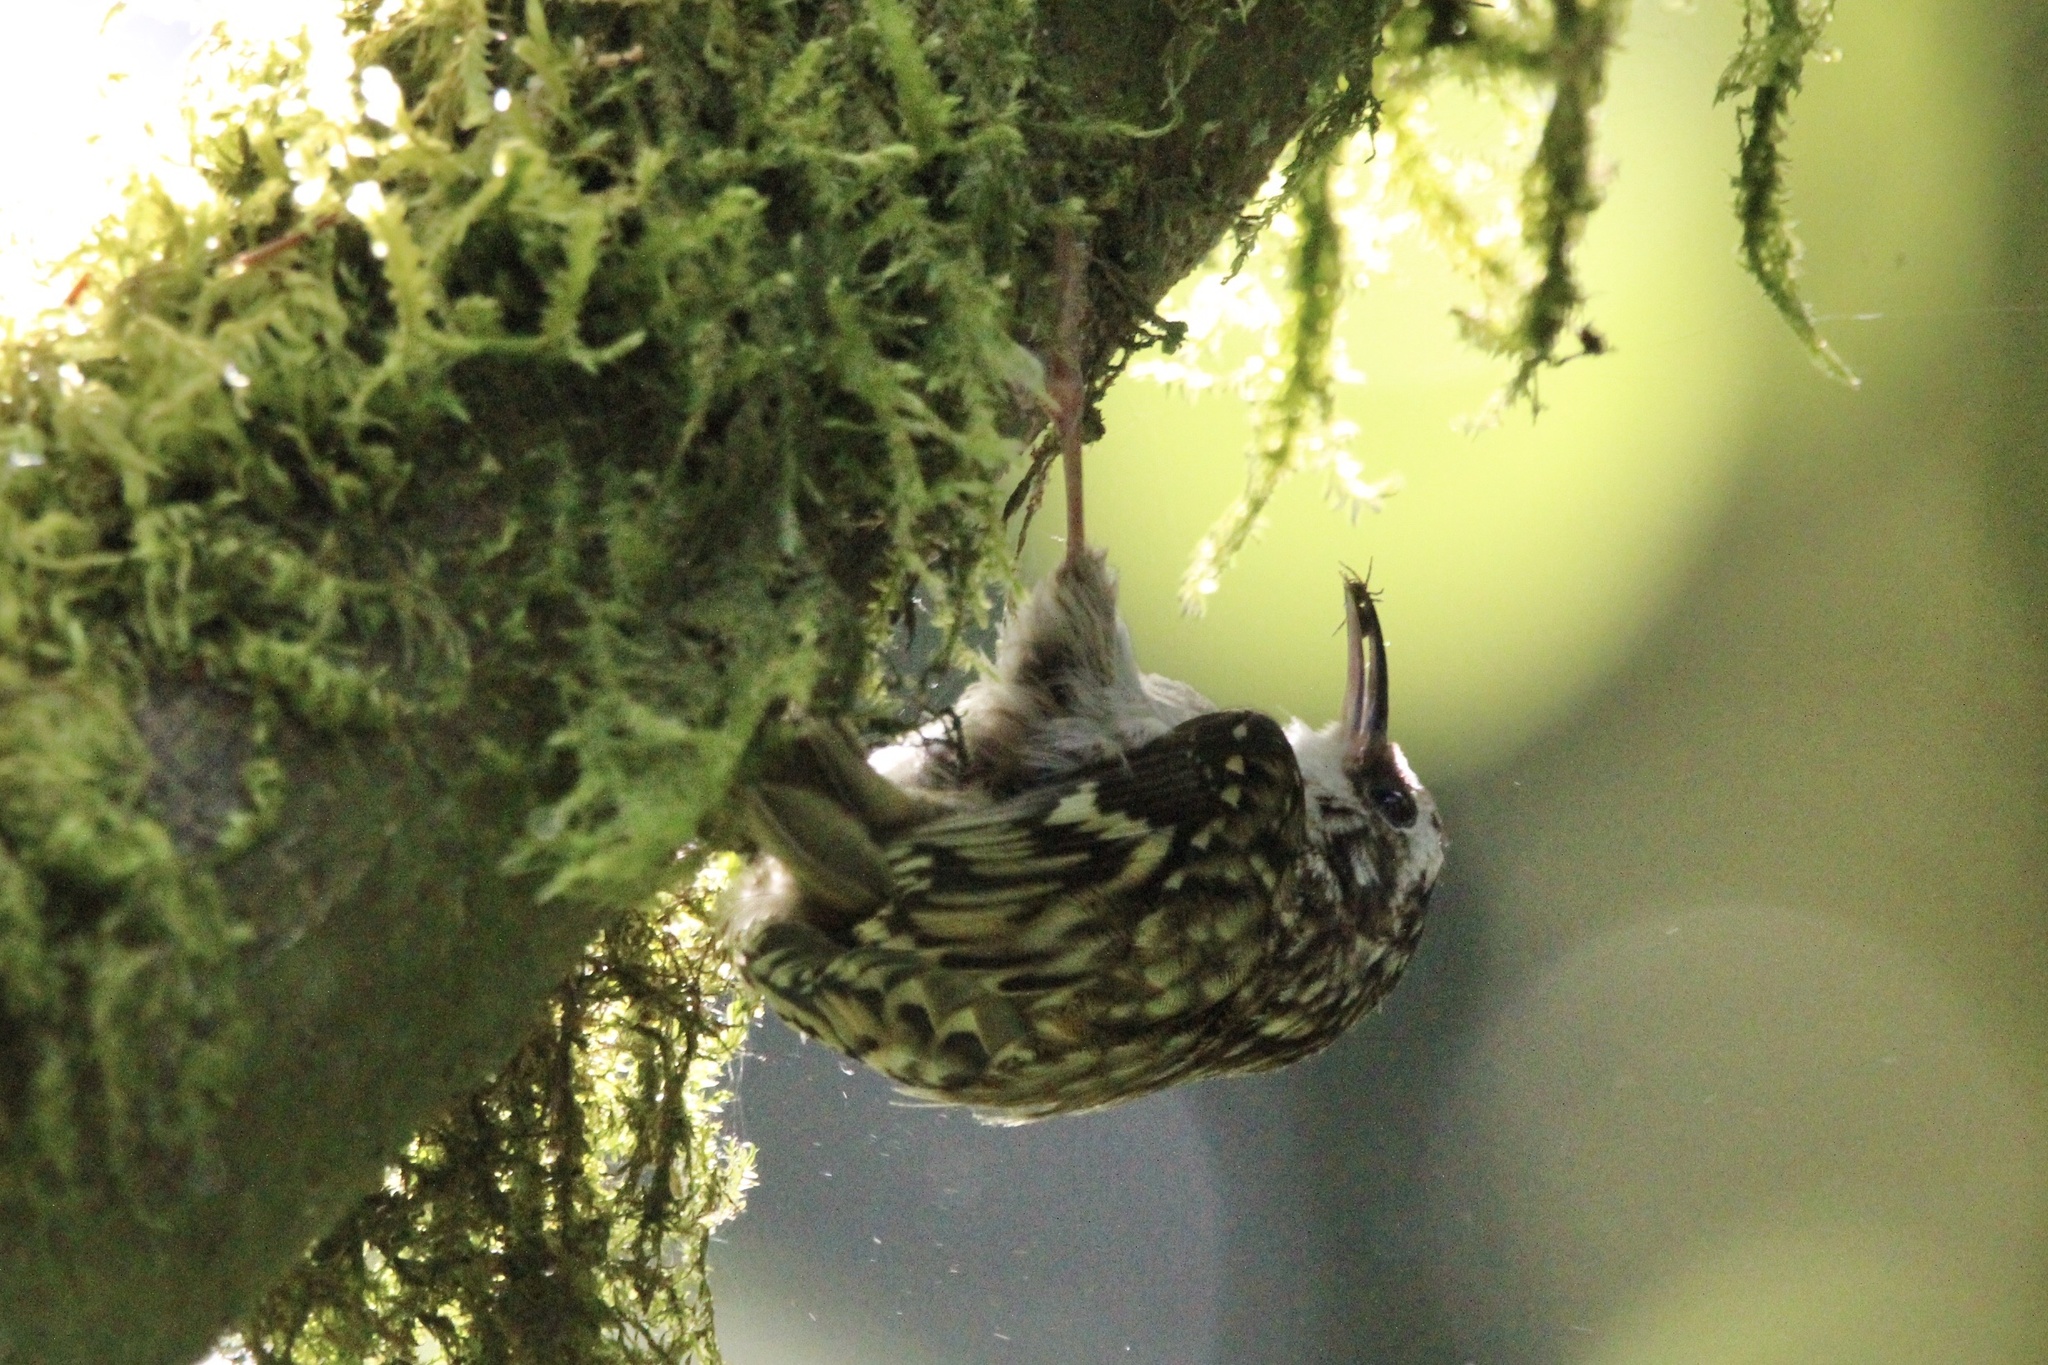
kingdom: Animalia
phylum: Chordata
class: Aves
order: Passeriformes
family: Certhiidae
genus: Certhia
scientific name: Certhia americana
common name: Brown creeper
